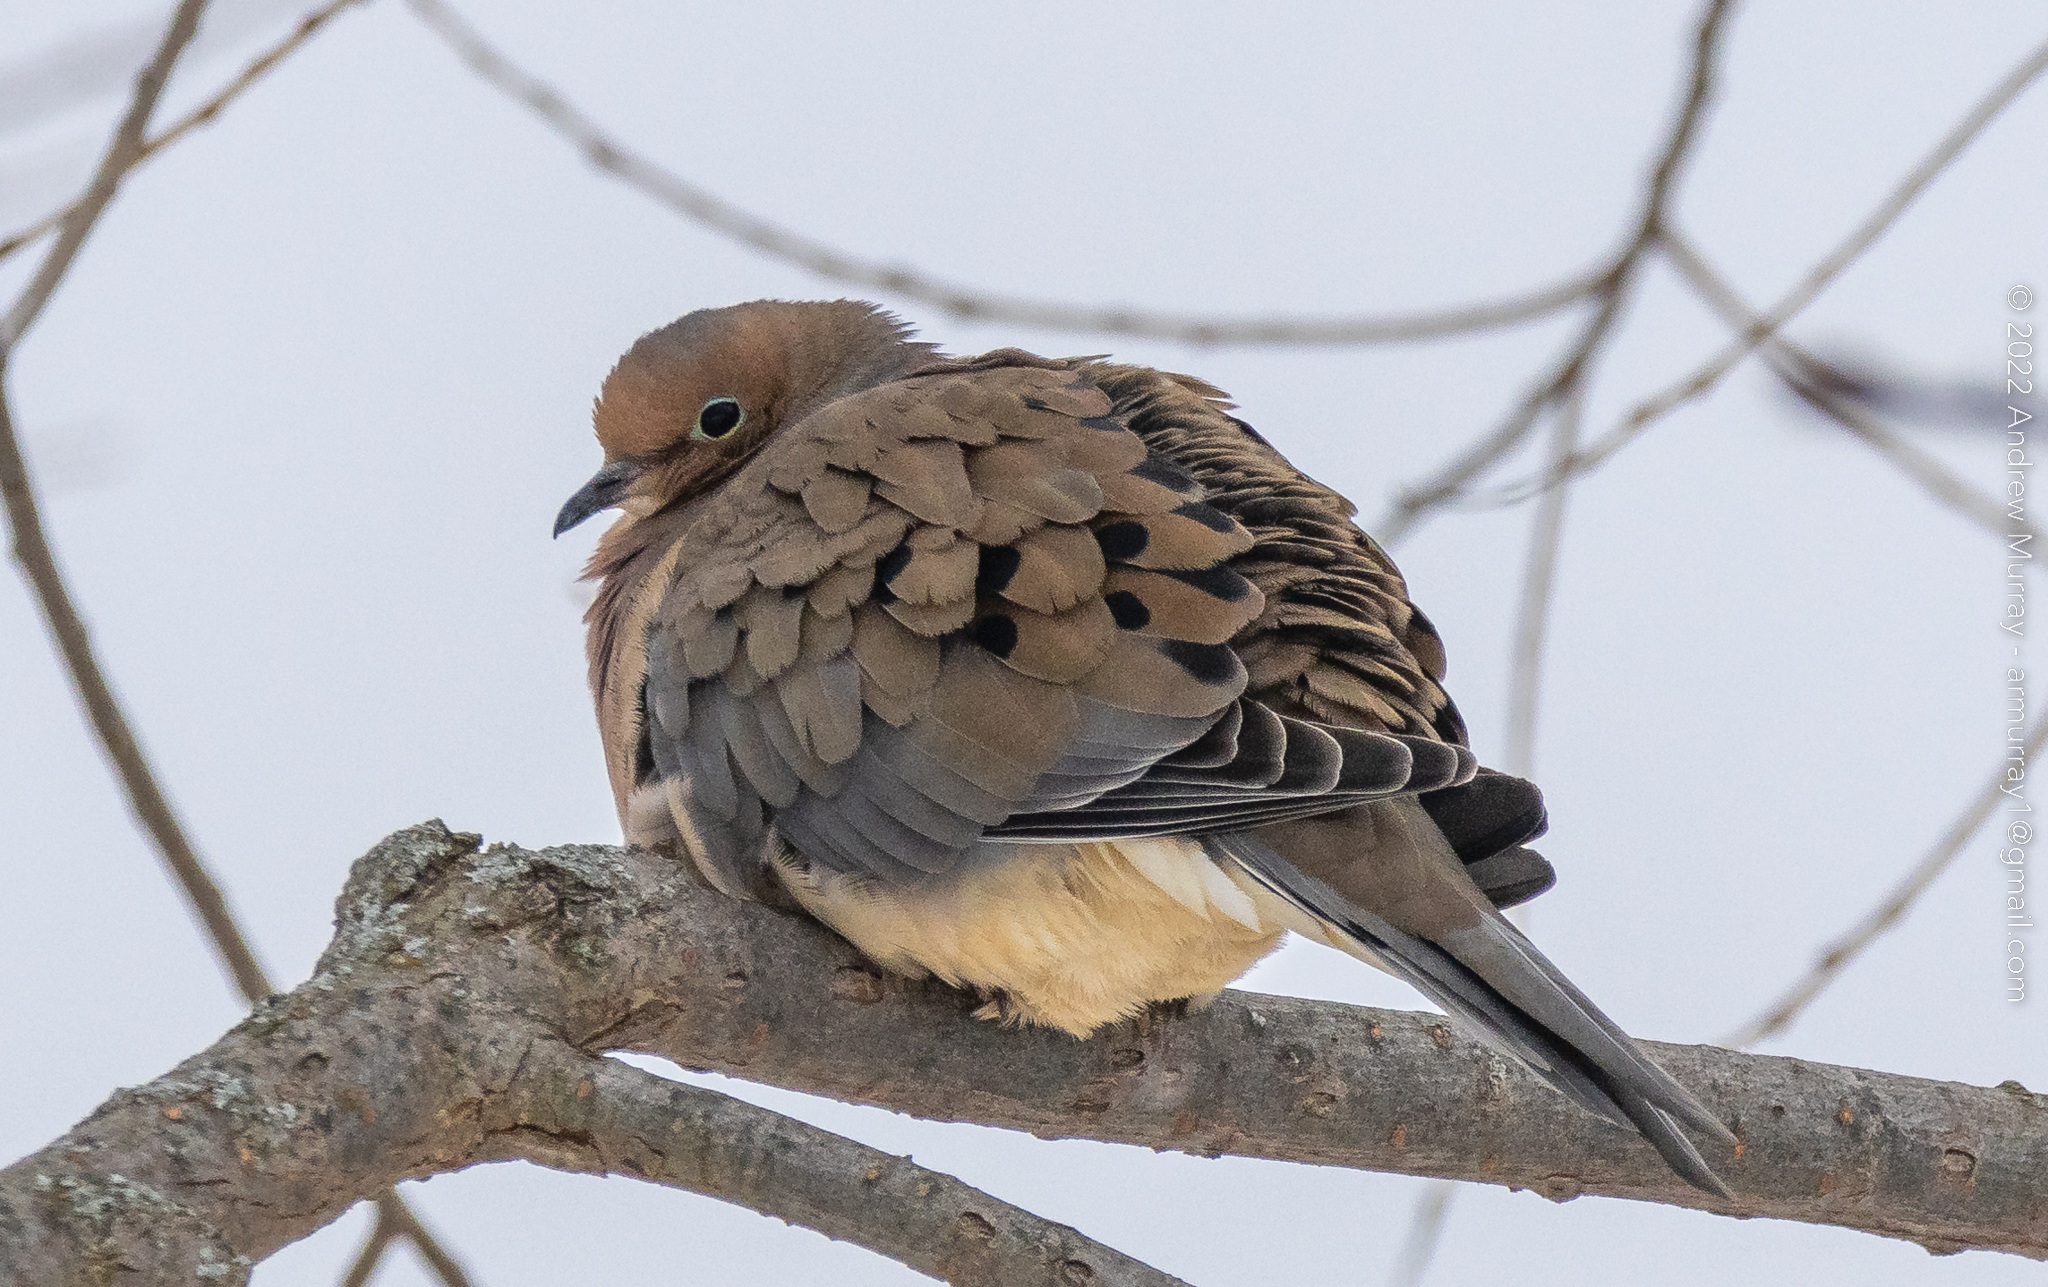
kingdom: Animalia
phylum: Chordata
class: Aves
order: Columbiformes
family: Columbidae
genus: Zenaida
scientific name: Zenaida macroura
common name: Mourning dove
